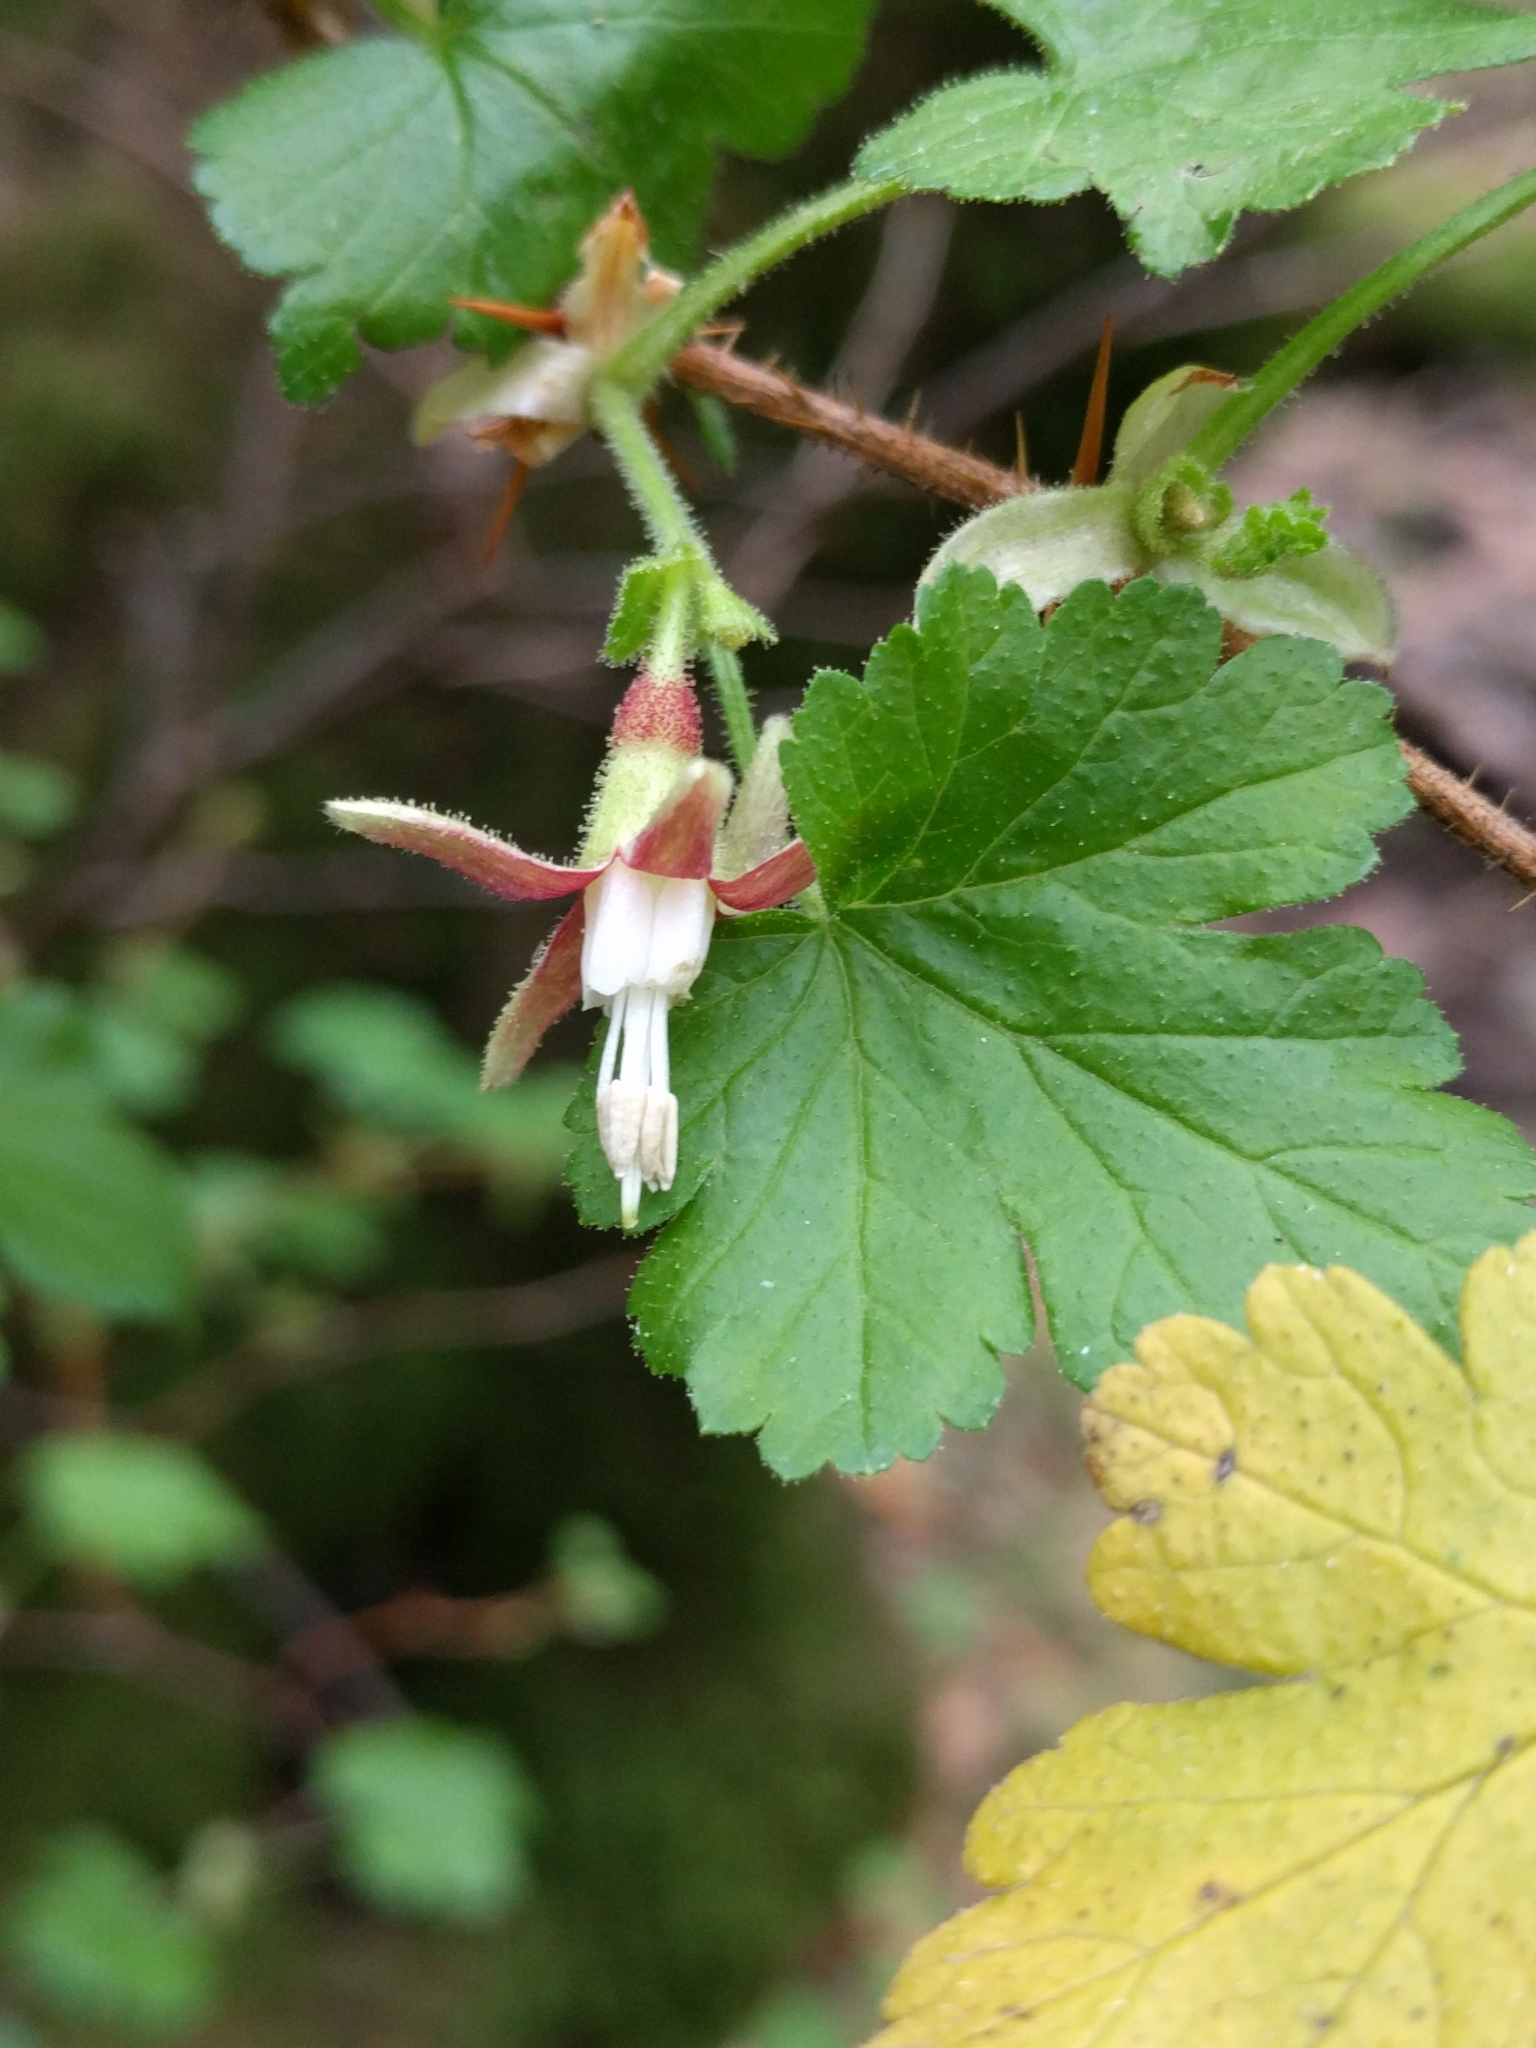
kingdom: Plantae
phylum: Tracheophyta
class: Magnoliopsida
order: Saxifragales
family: Grossulariaceae
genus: Ribes
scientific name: Ribes menziesii
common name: Canyon gooseberry
